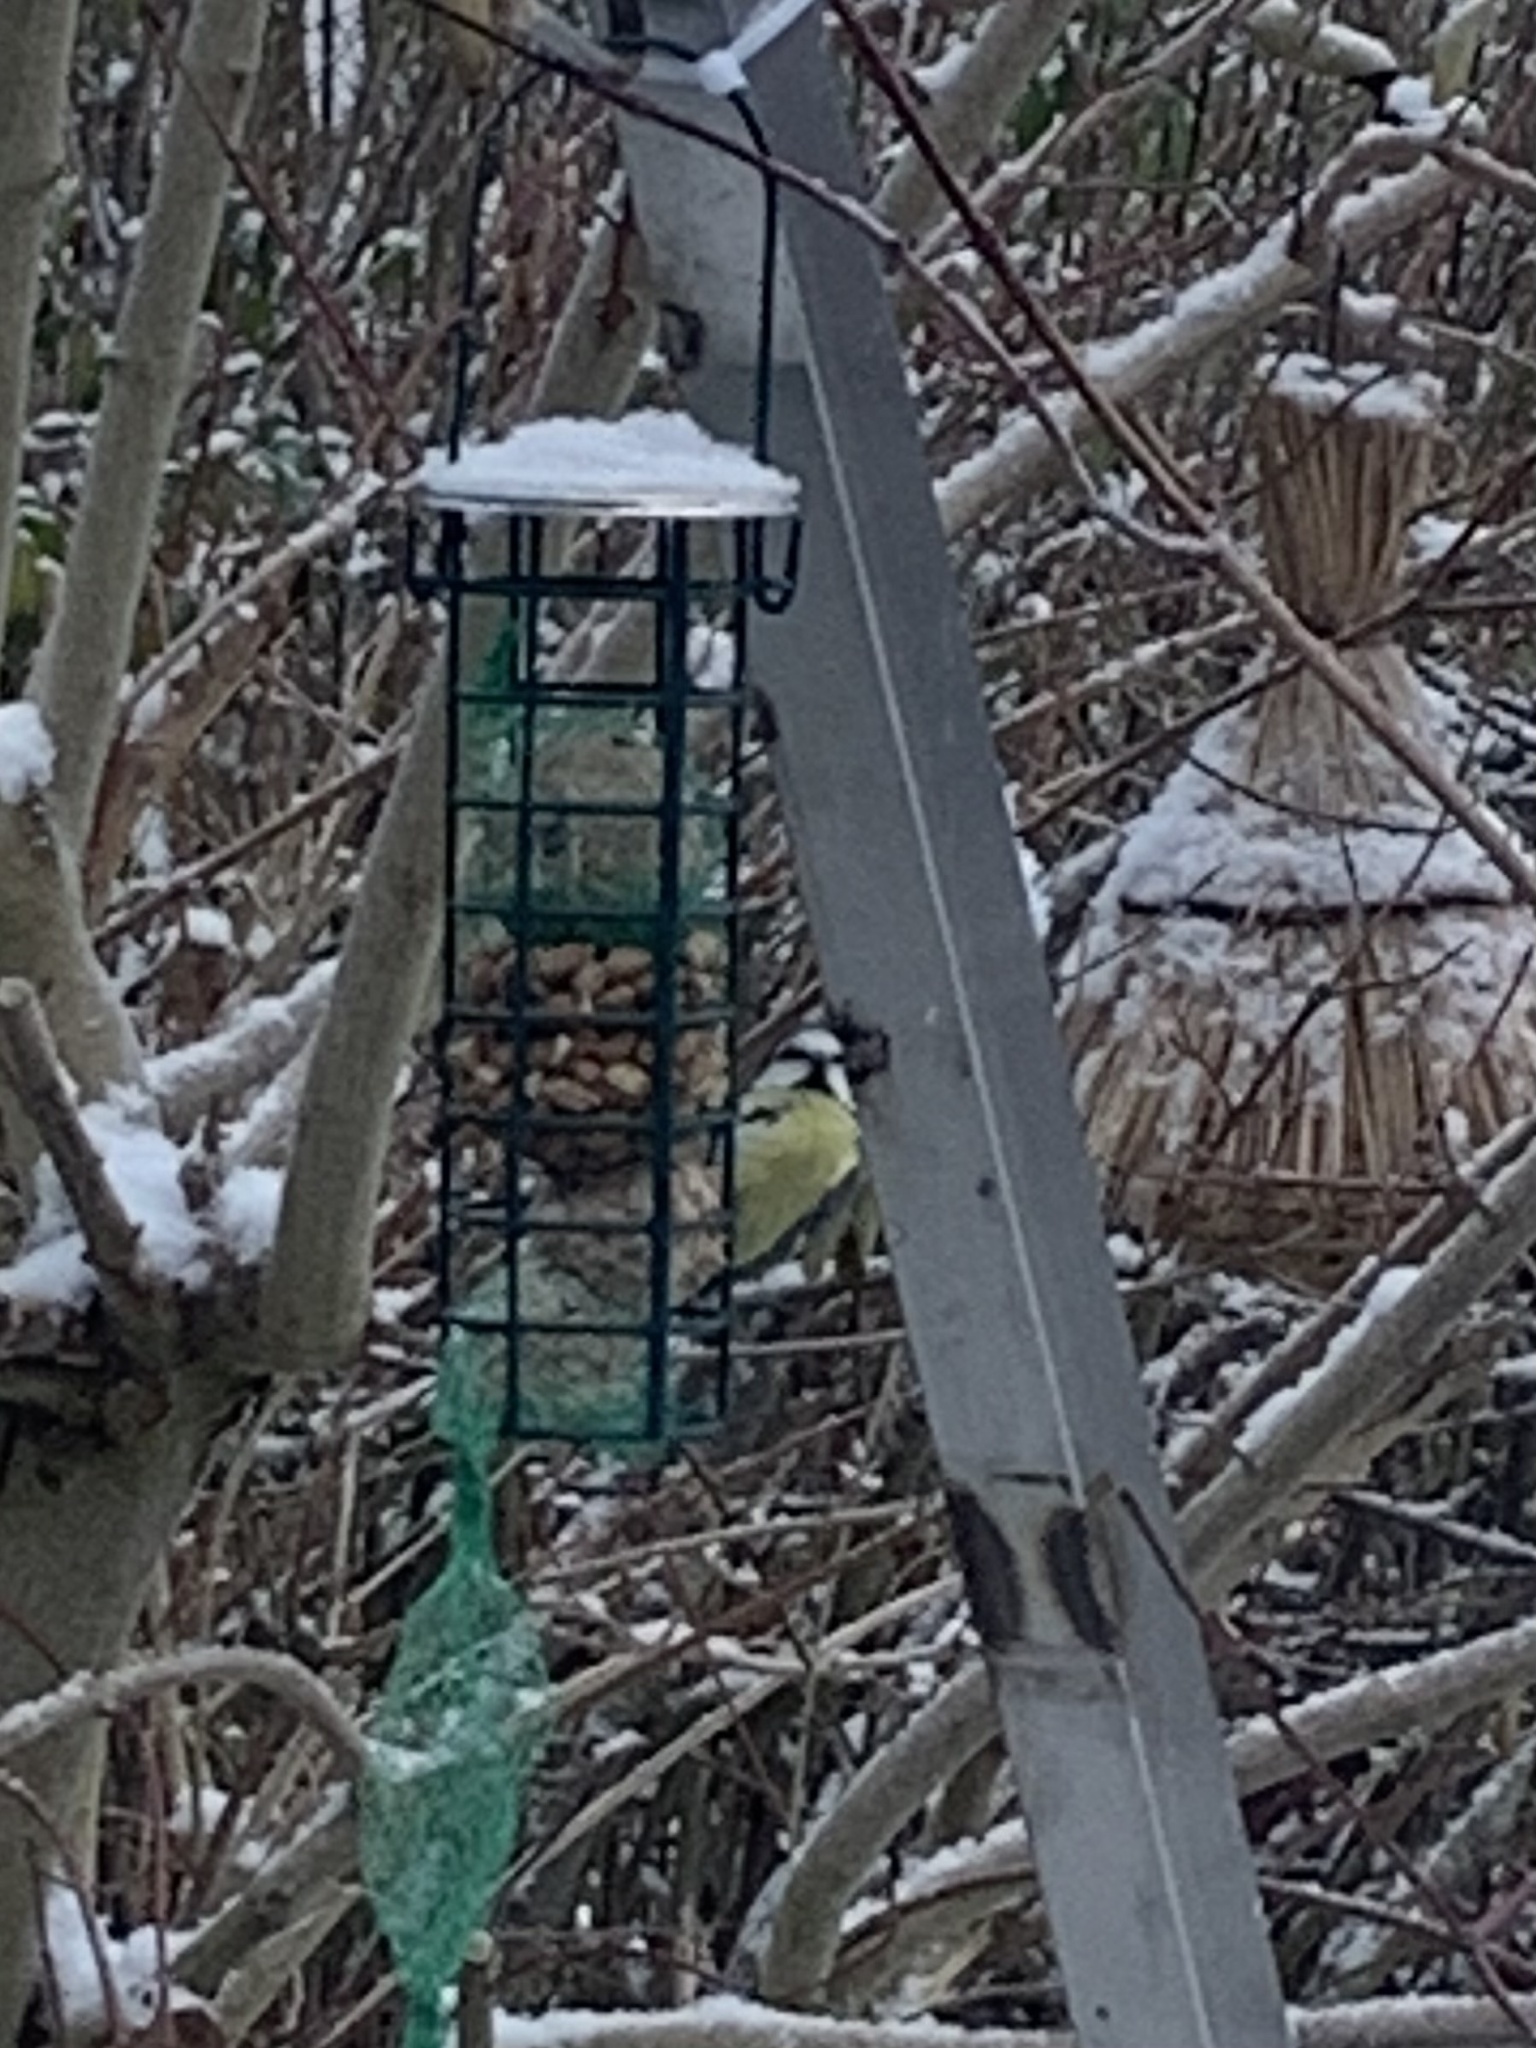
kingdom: Animalia
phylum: Chordata
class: Aves
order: Passeriformes
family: Paridae
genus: Cyanistes
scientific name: Cyanistes caeruleus
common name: Eurasian blue tit
